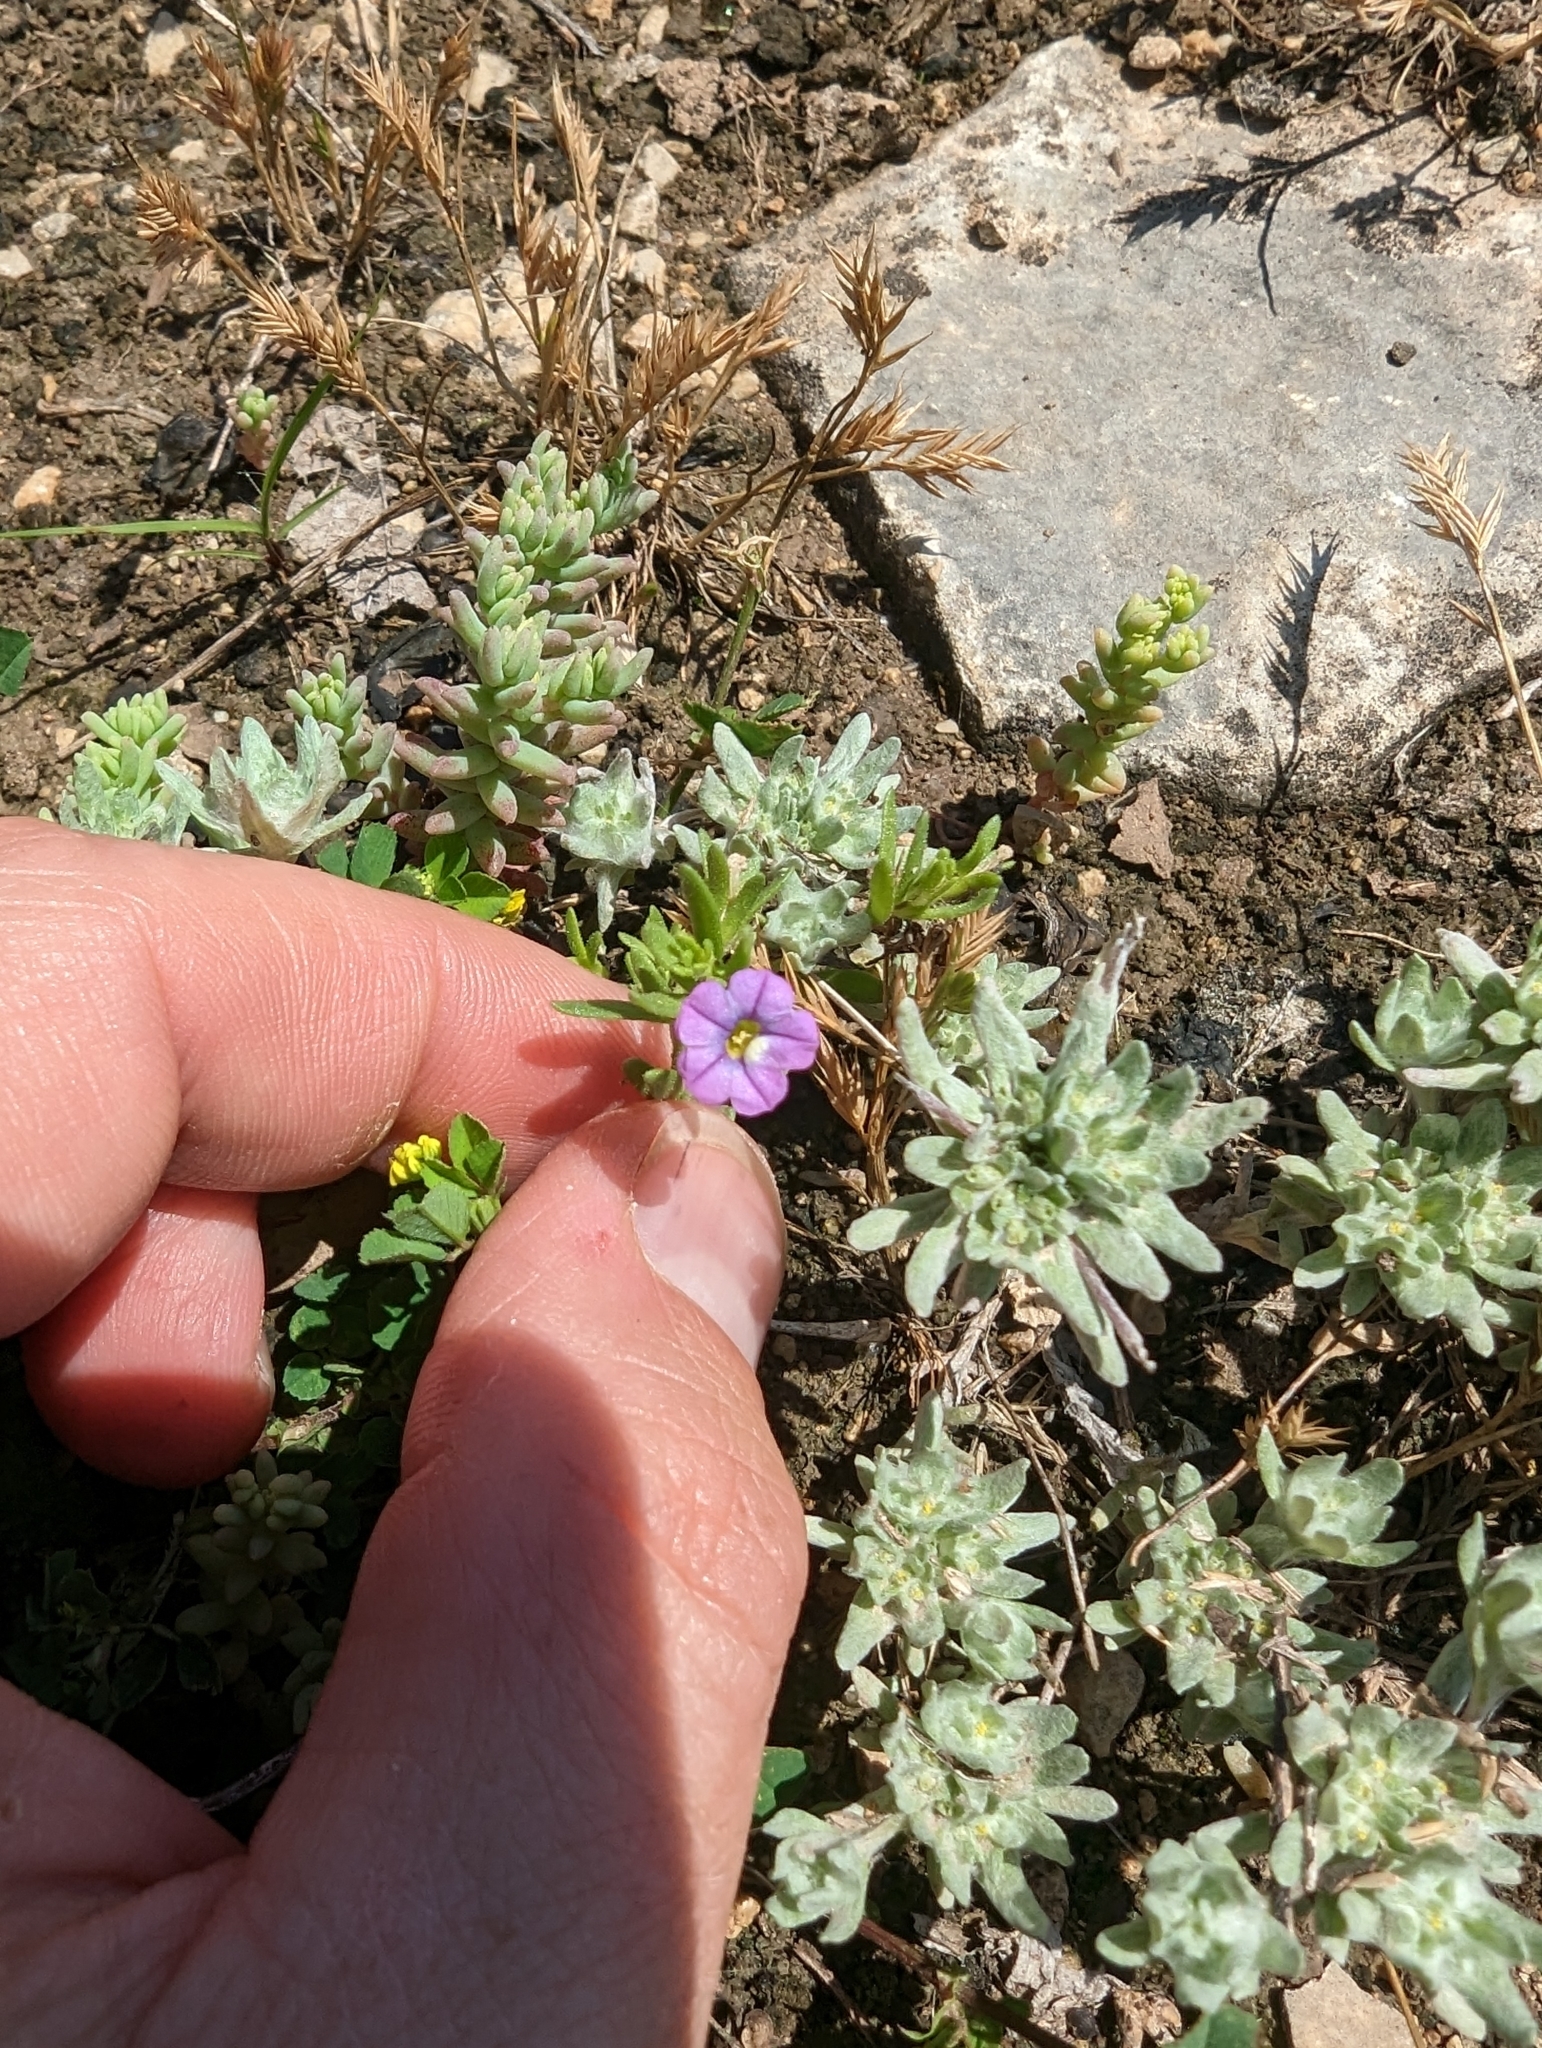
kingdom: Plantae
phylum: Tracheophyta
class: Magnoliopsida
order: Solanales
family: Solanaceae
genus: Calibrachoa
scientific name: Calibrachoa parviflora
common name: Seaside petunia
